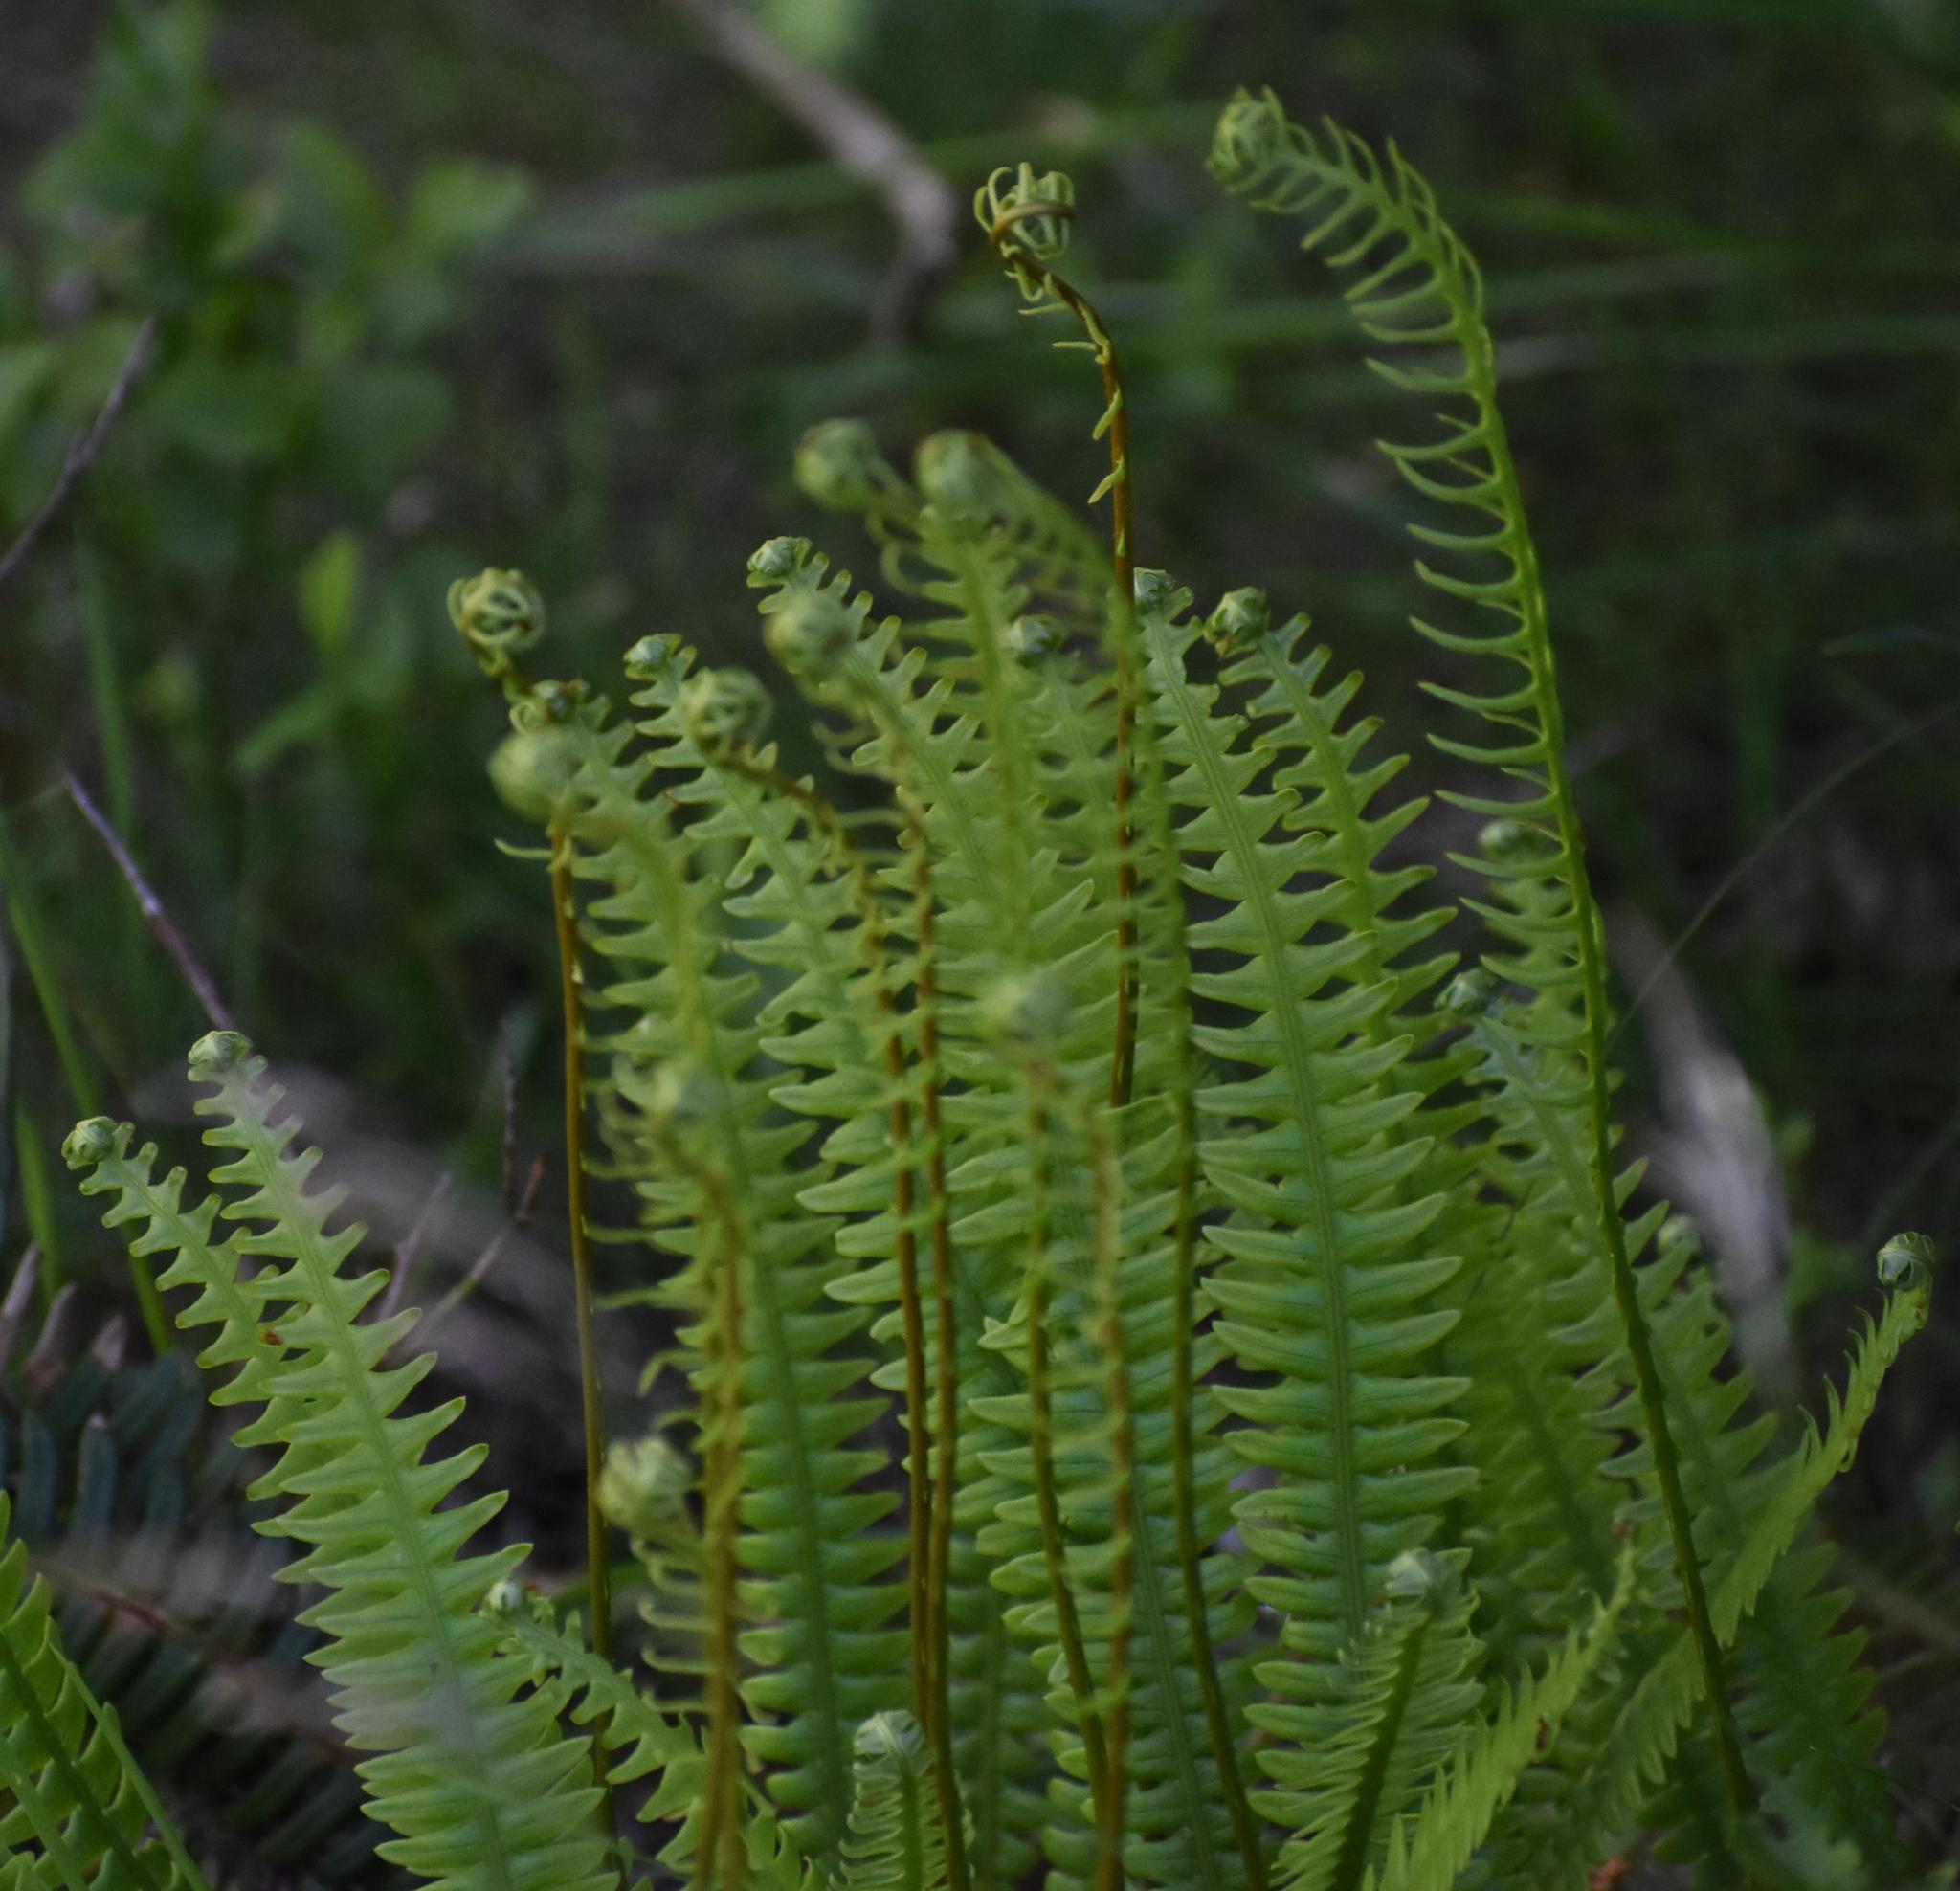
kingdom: Plantae
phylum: Tracheophyta
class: Polypodiopsida
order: Polypodiales
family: Blechnaceae
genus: Struthiopteris
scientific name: Struthiopteris spicant
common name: Deer fern
